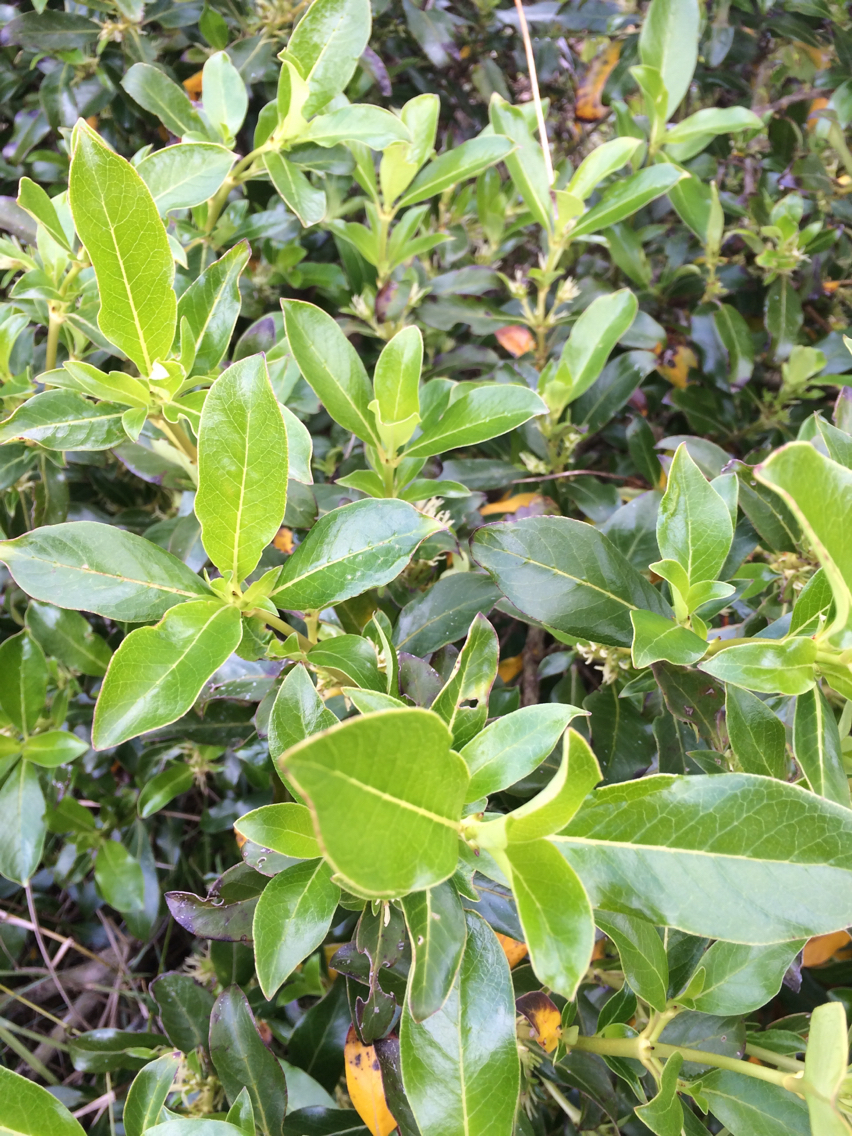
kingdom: Plantae
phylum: Tracheophyta
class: Magnoliopsida
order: Gentianales
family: Rubiaceae
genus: Coprosma
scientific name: Coprosma robusta
